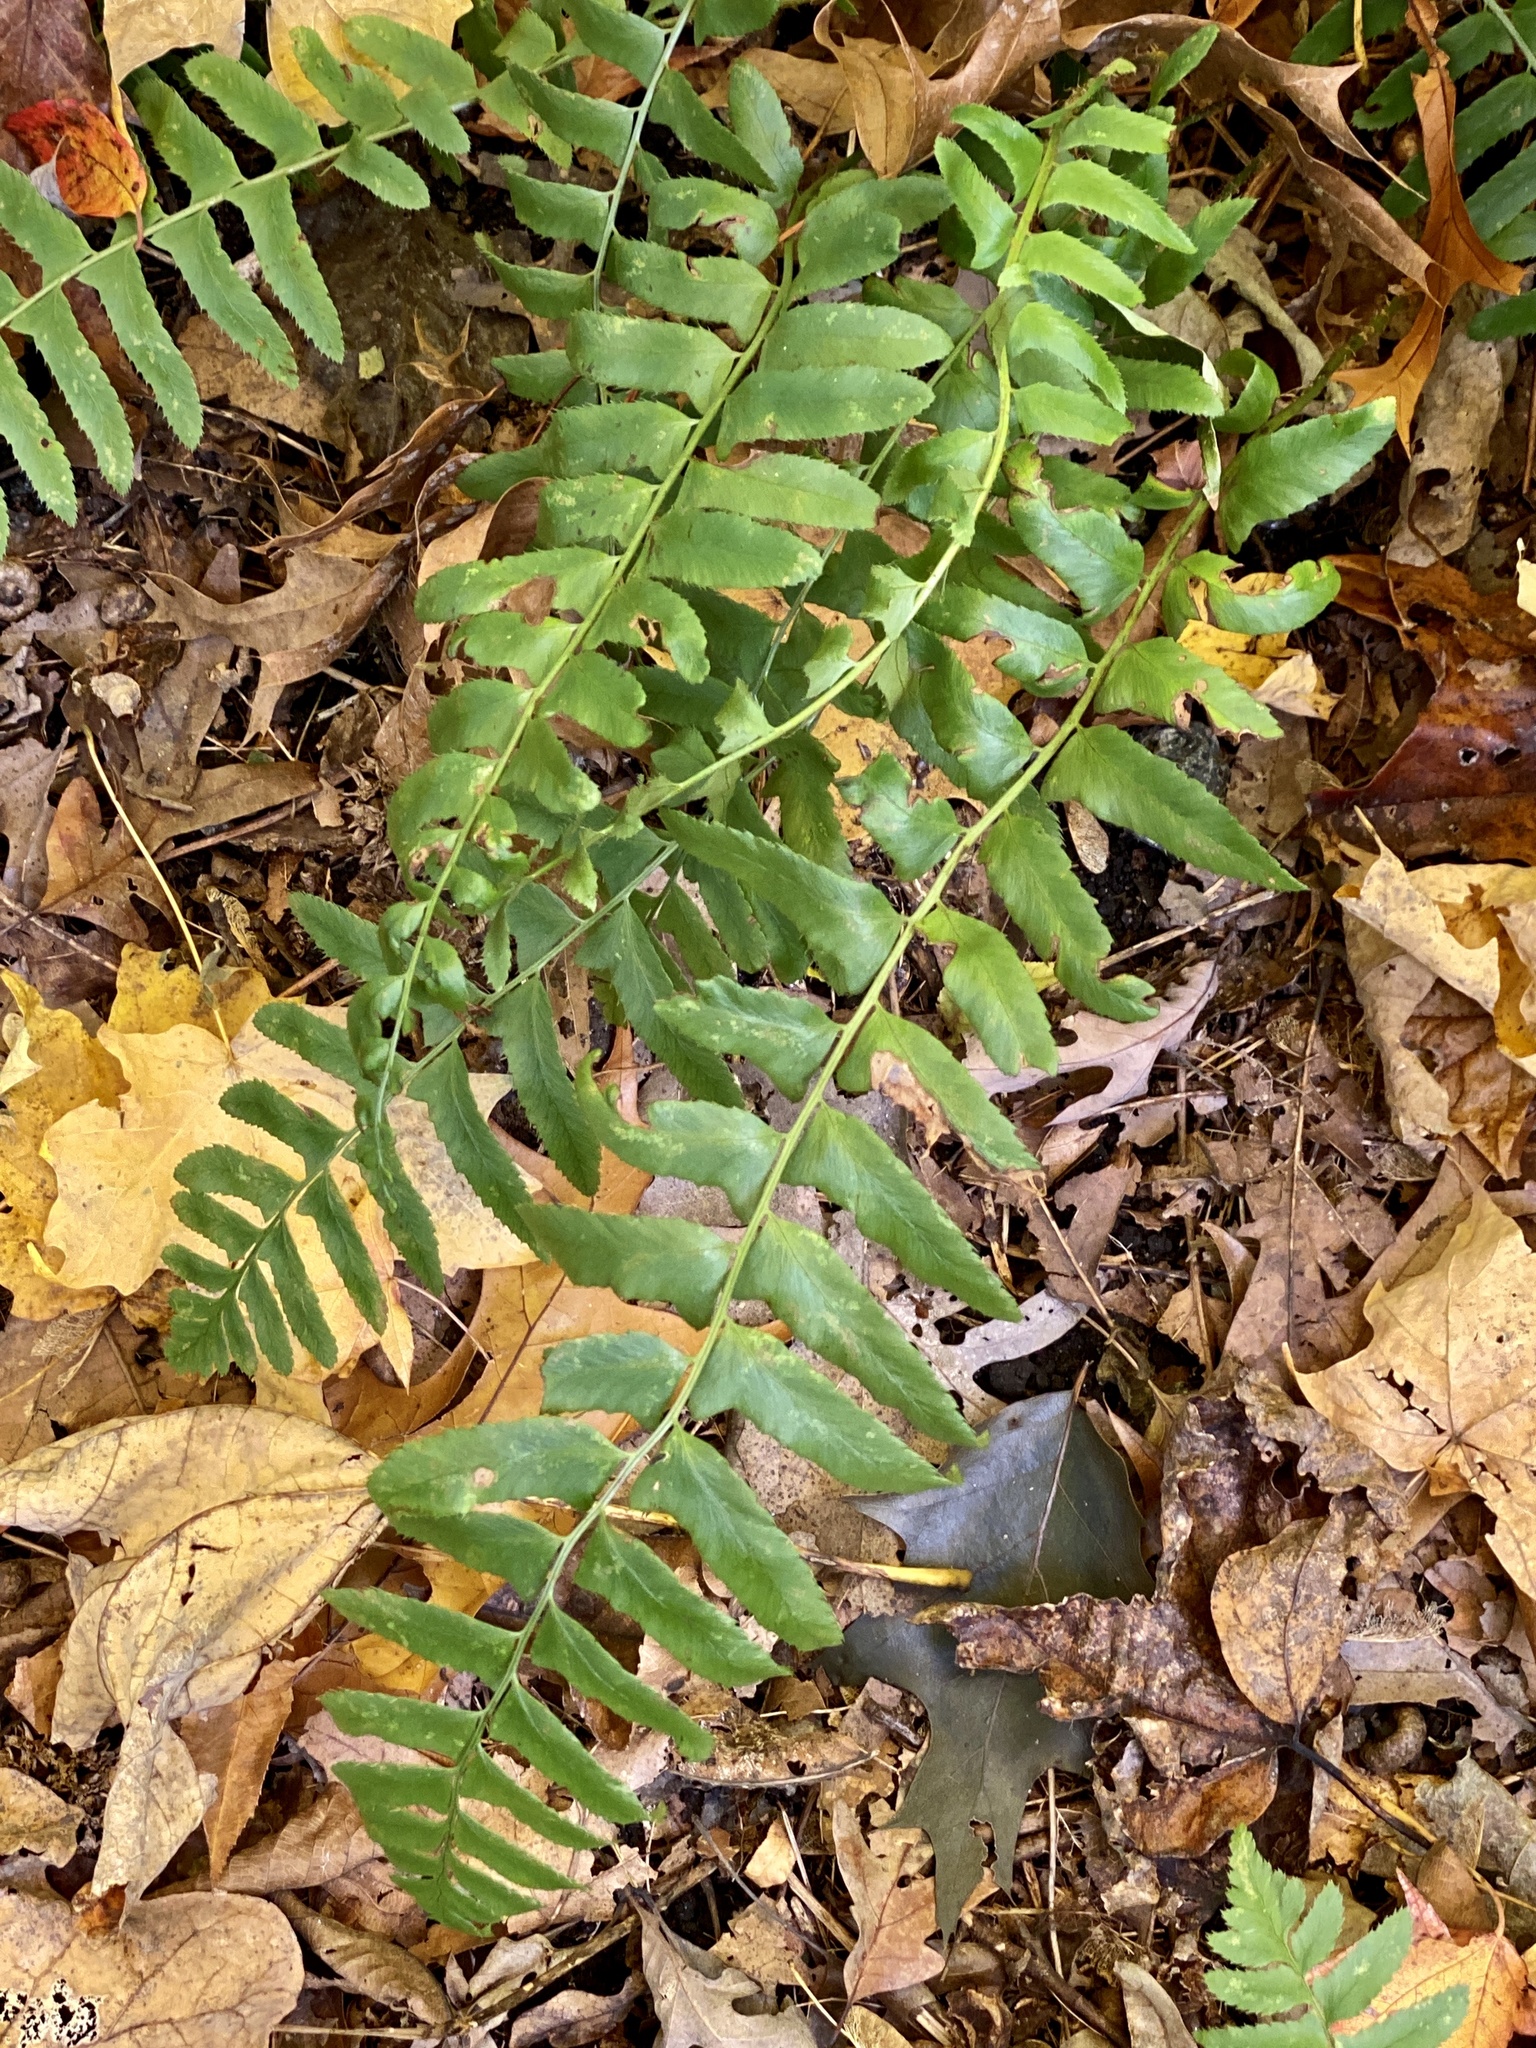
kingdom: Plantae
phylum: Tracheophyta
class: Polypodiopsida
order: Polypodiales
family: Dryopteridaceae
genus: Polystichum
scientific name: Polystichum acrostichoides
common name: Christmas fern
